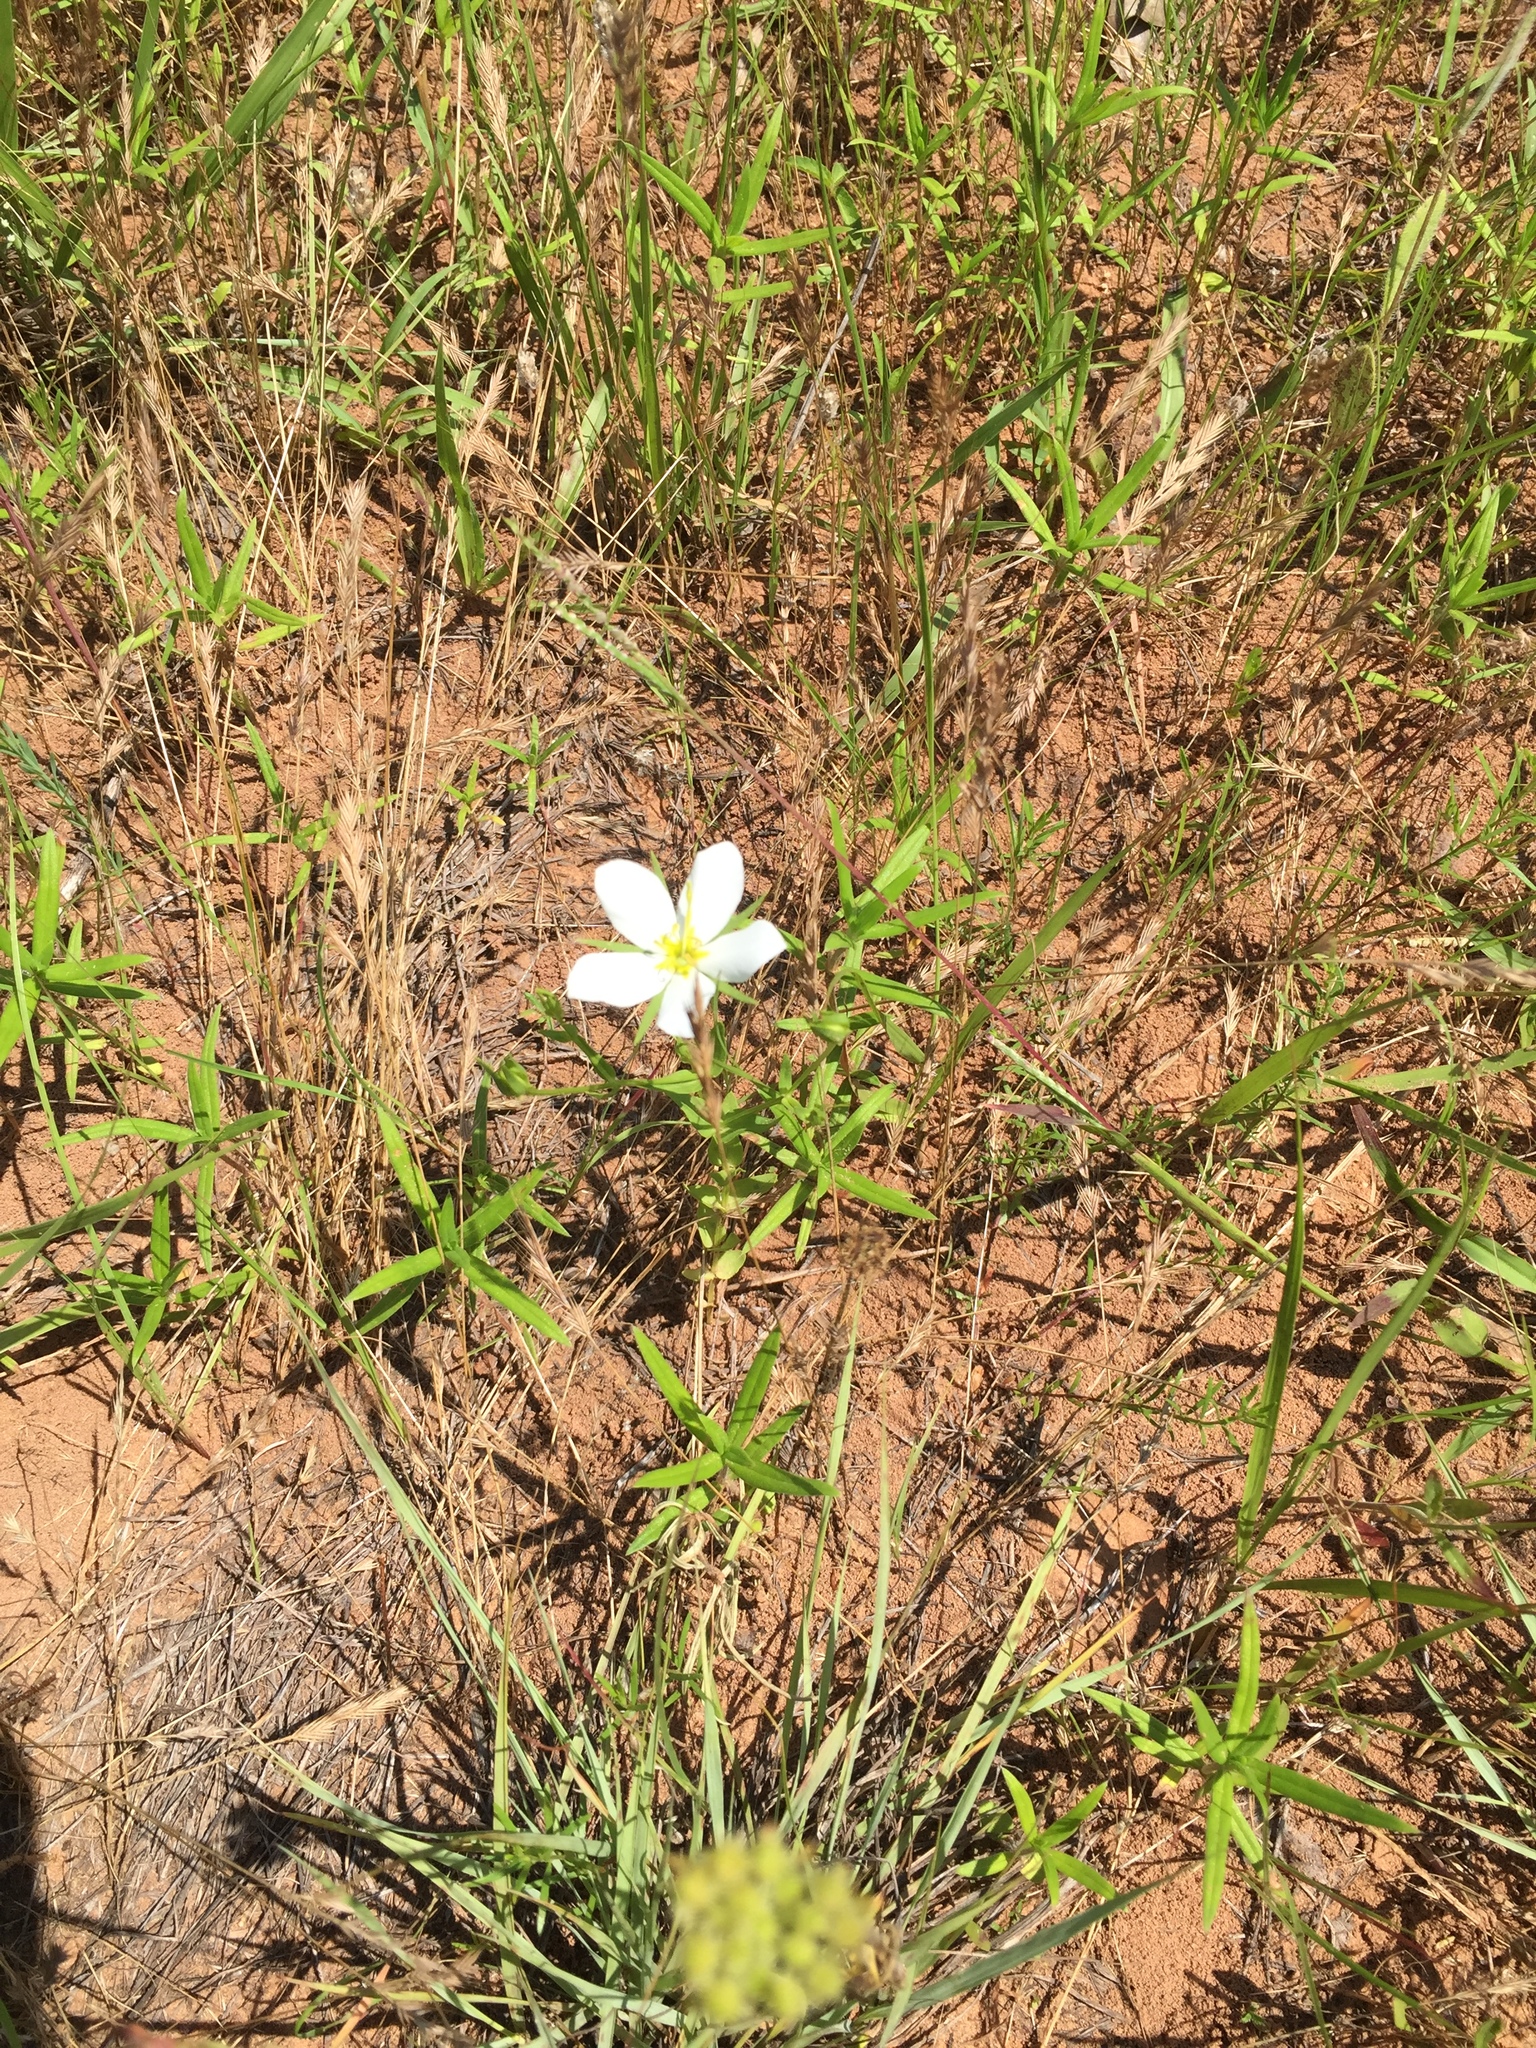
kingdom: Plantae
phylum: Tracheophyta
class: Magnoliopsida
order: Gentianales
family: Gentianaceae
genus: Sabatia
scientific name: Sabatia campestris
